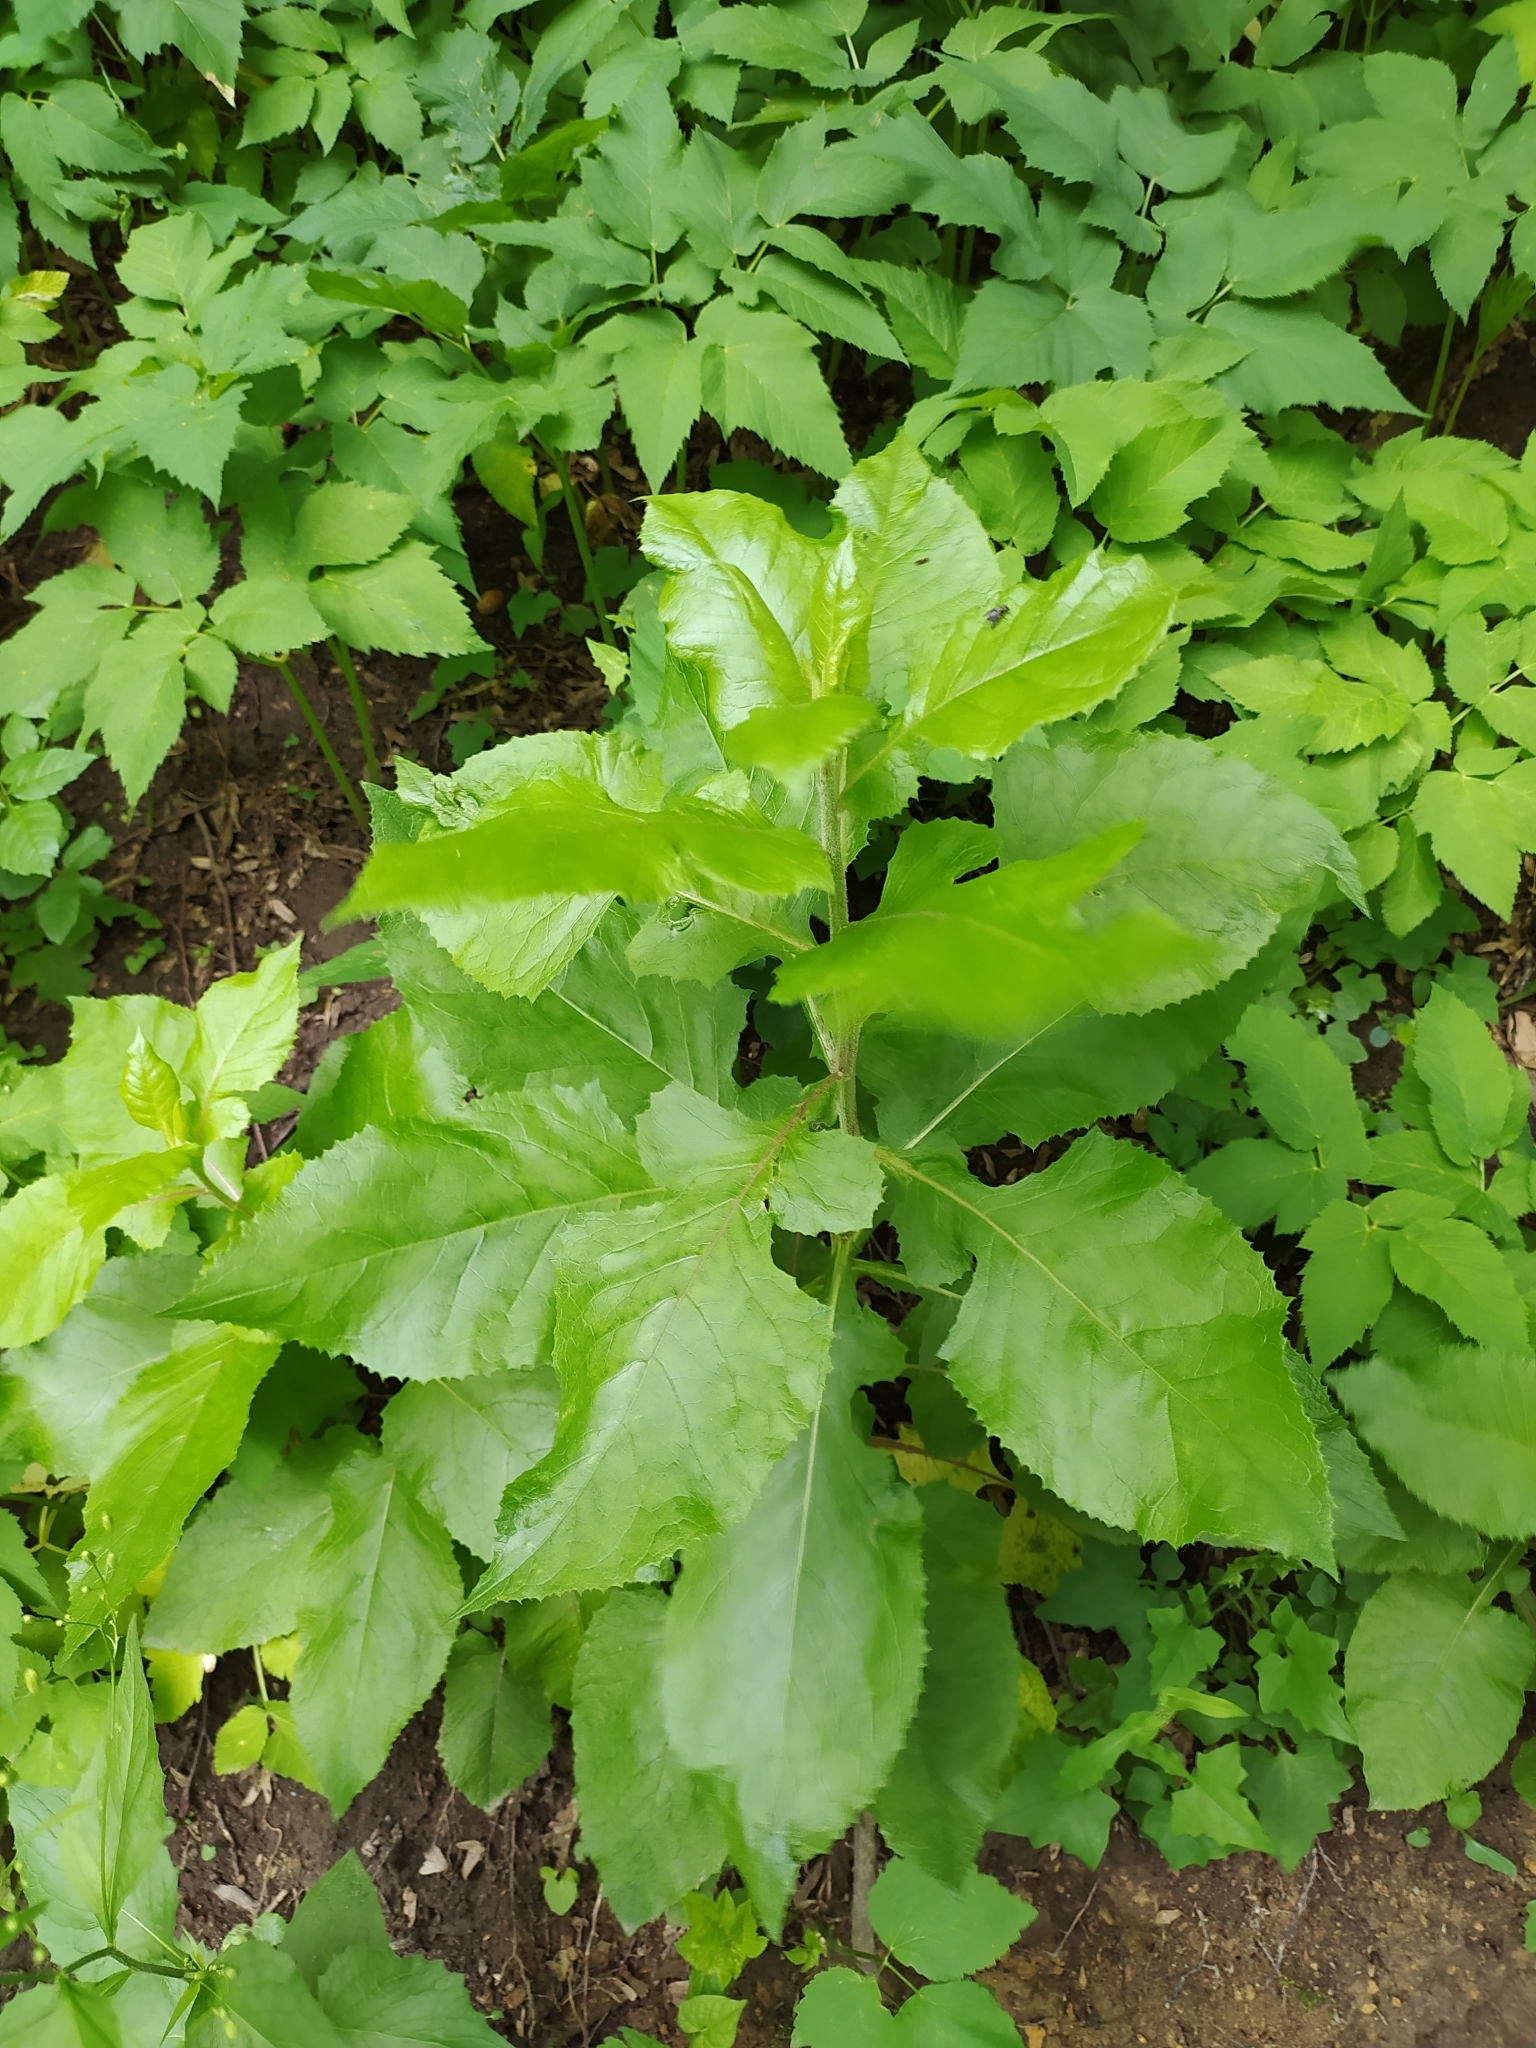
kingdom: Plantae
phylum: Tracheophyta
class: Magnoliopsida
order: Asterales
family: Asteraceae
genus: Cicerbita
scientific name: Cicerbita prenanthoides
